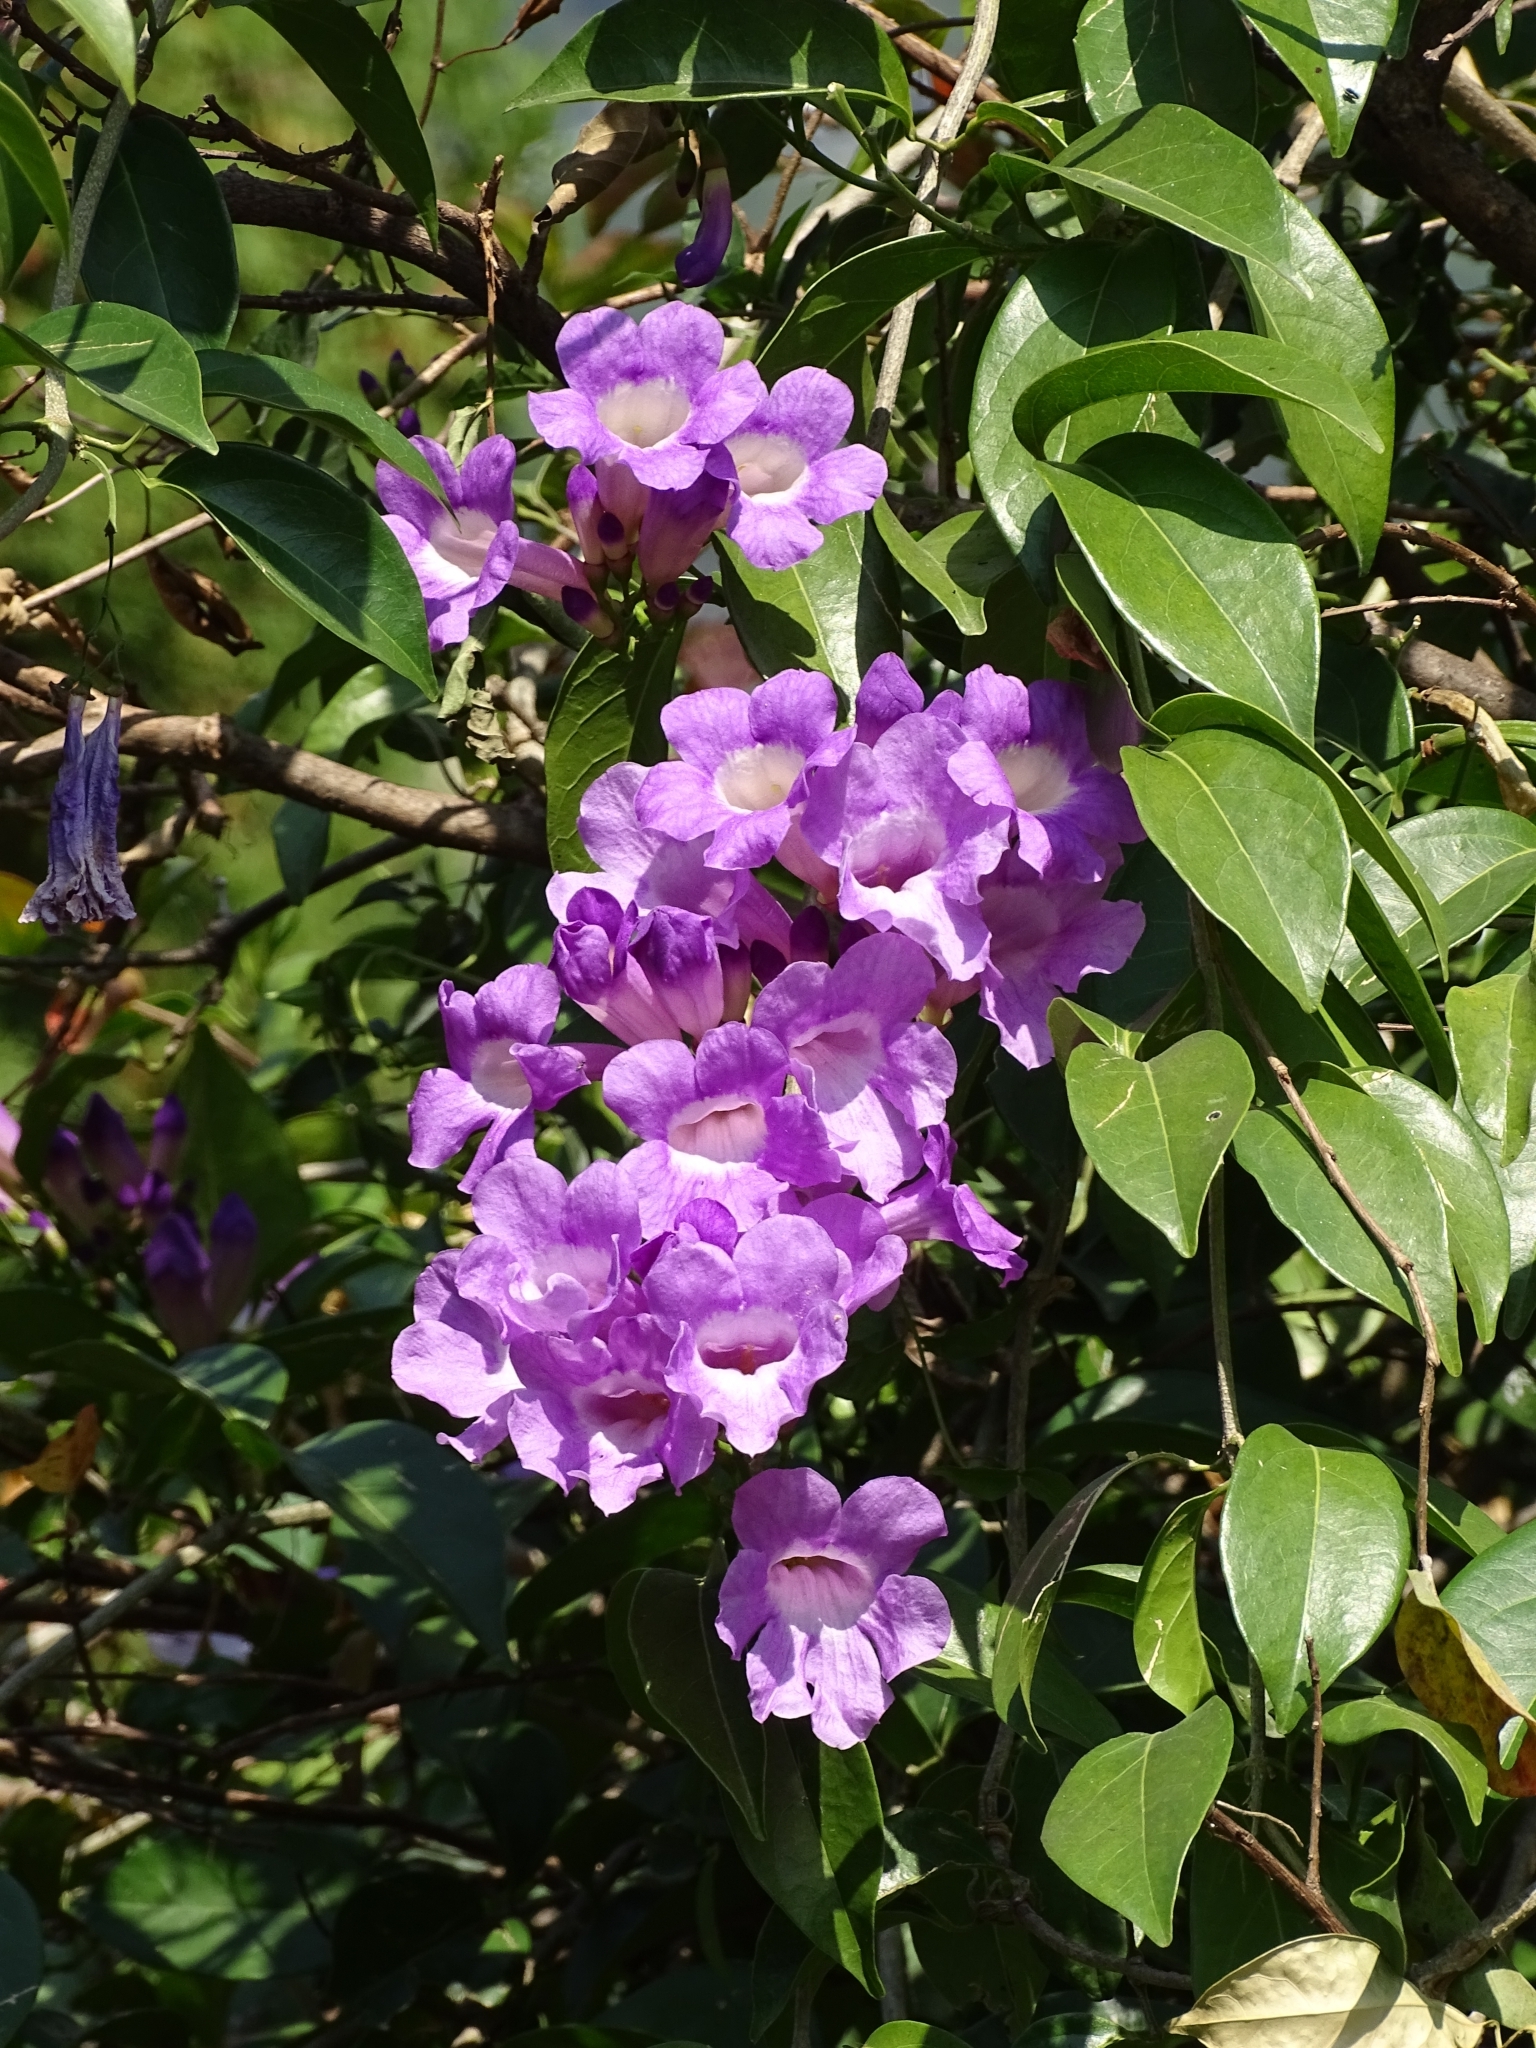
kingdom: Plantae
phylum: Tracheophyta
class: Magnoliopsida
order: Lamiales
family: Bignoniaceae
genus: Mansoa
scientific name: Mansoa alliacea
